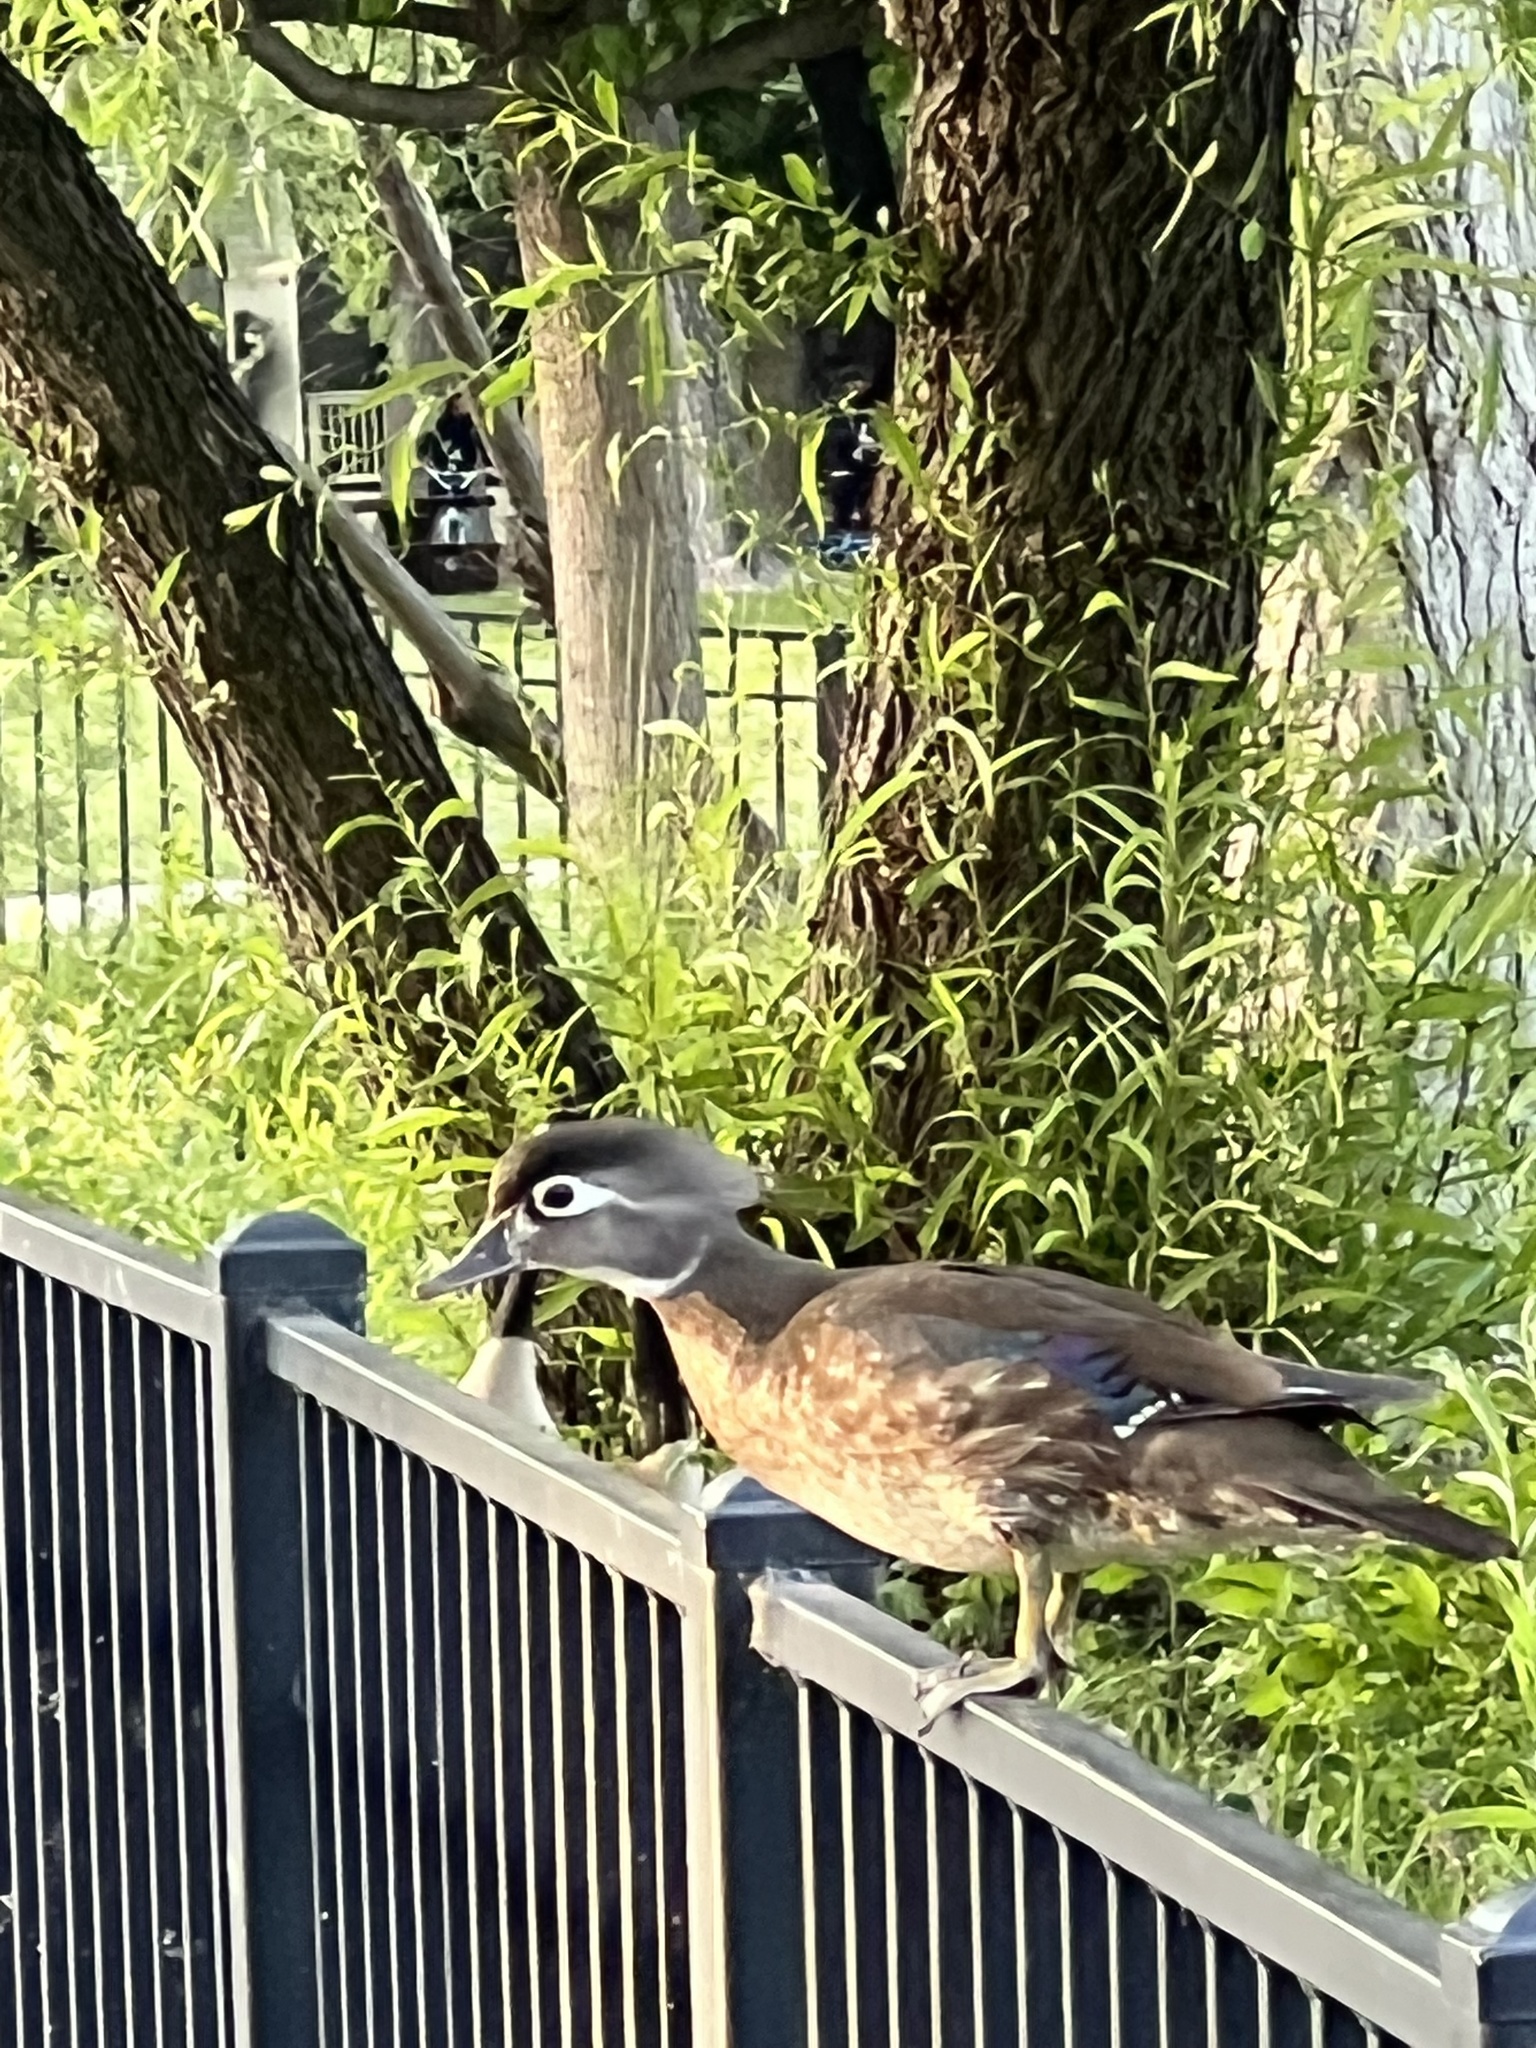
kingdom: Animalia
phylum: Chordata
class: Aves
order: Anseriformes
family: Anatidae
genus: Aix
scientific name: Aix sponsa
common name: Wood duck
